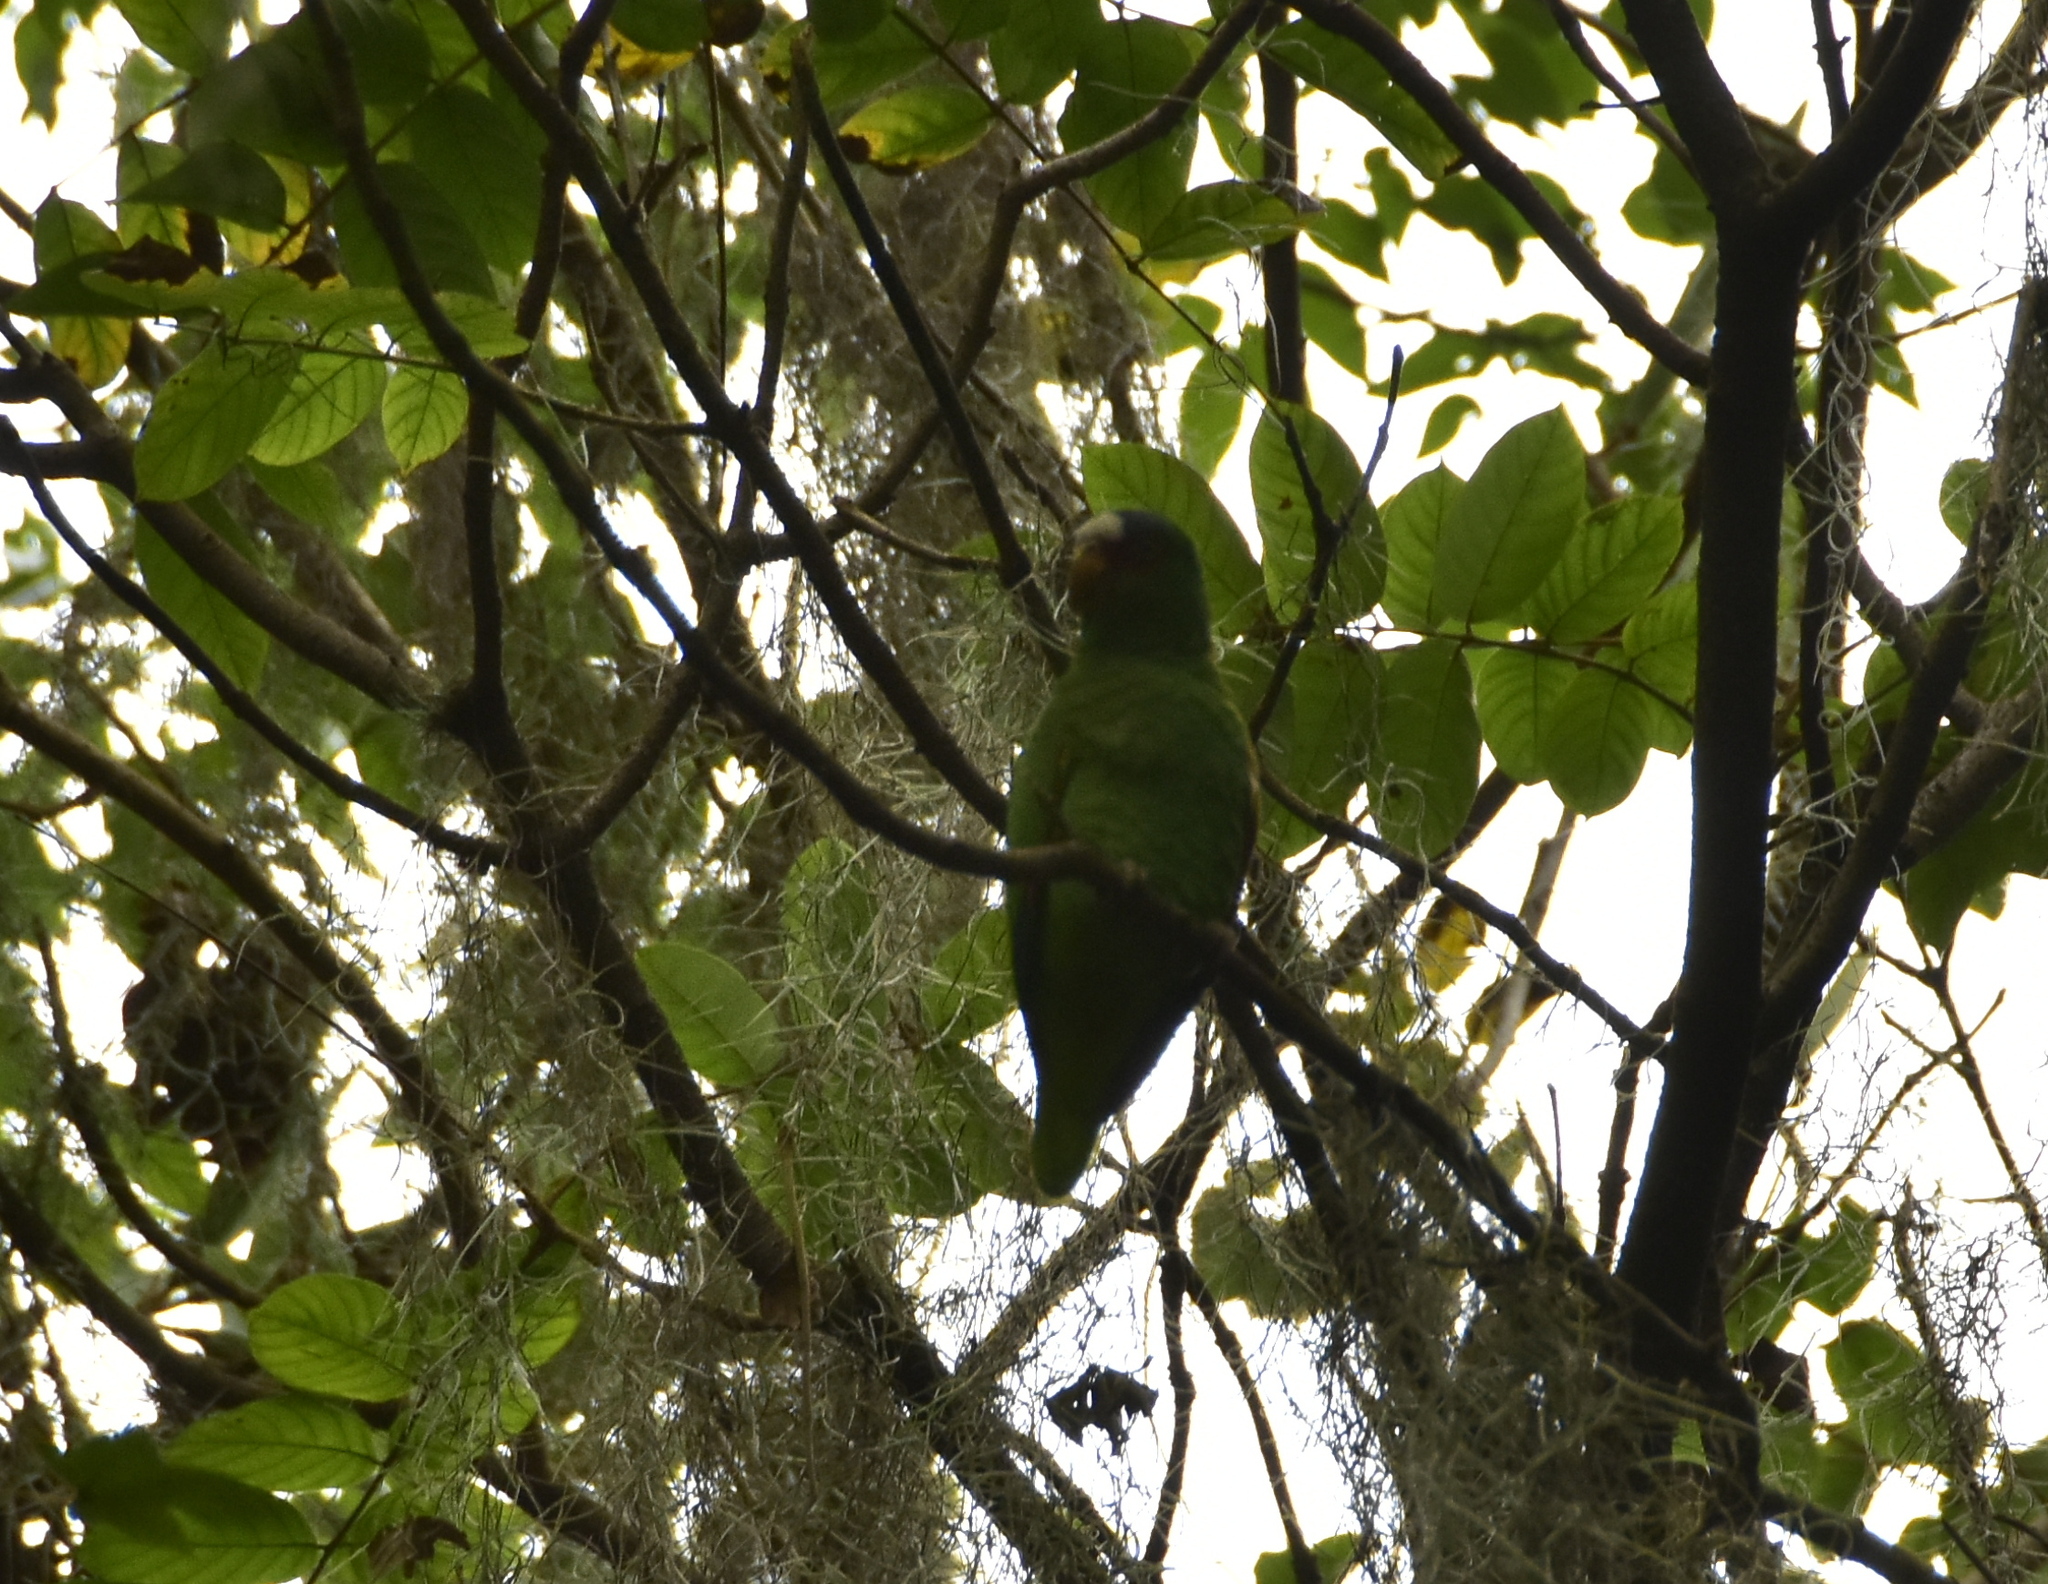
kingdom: Animalia
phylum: Chordata
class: Aves
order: Psittaciformes
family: Psittacidae
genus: Amazona
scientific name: Amazona albifrons
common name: White-fronted amazon
